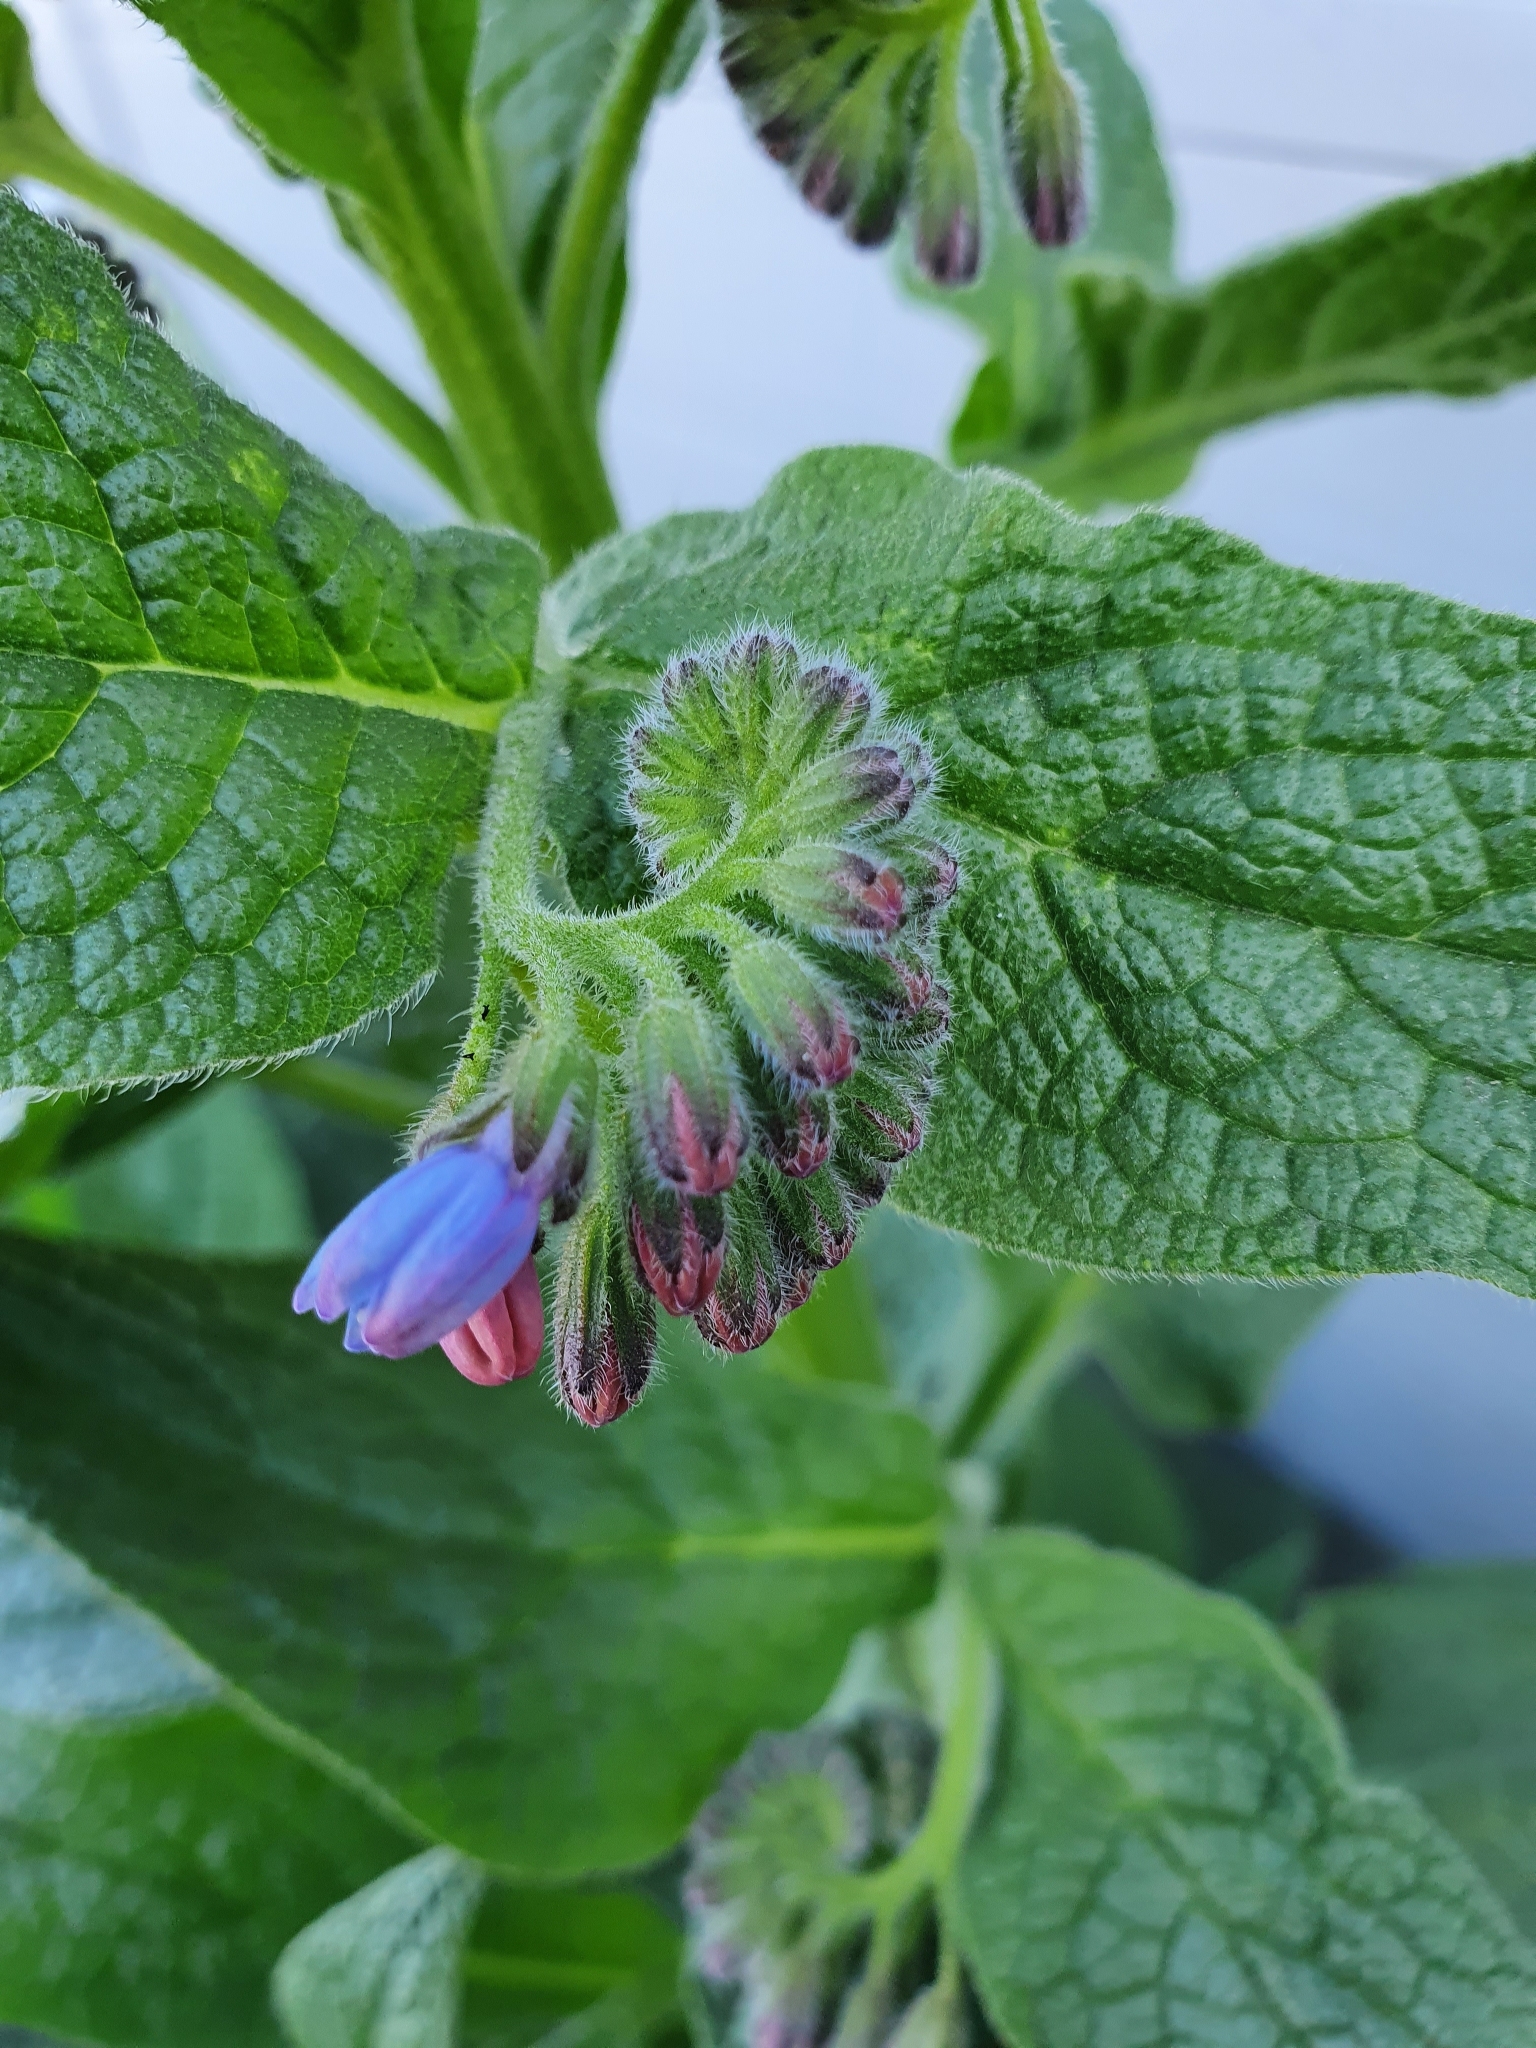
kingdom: Plantae
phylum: Tracheophyta
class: Magnoliopsida
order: Boraginales
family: Boraginaceae
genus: Symphytum
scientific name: Symphytum caucasicum
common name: Caucasian comfrey
